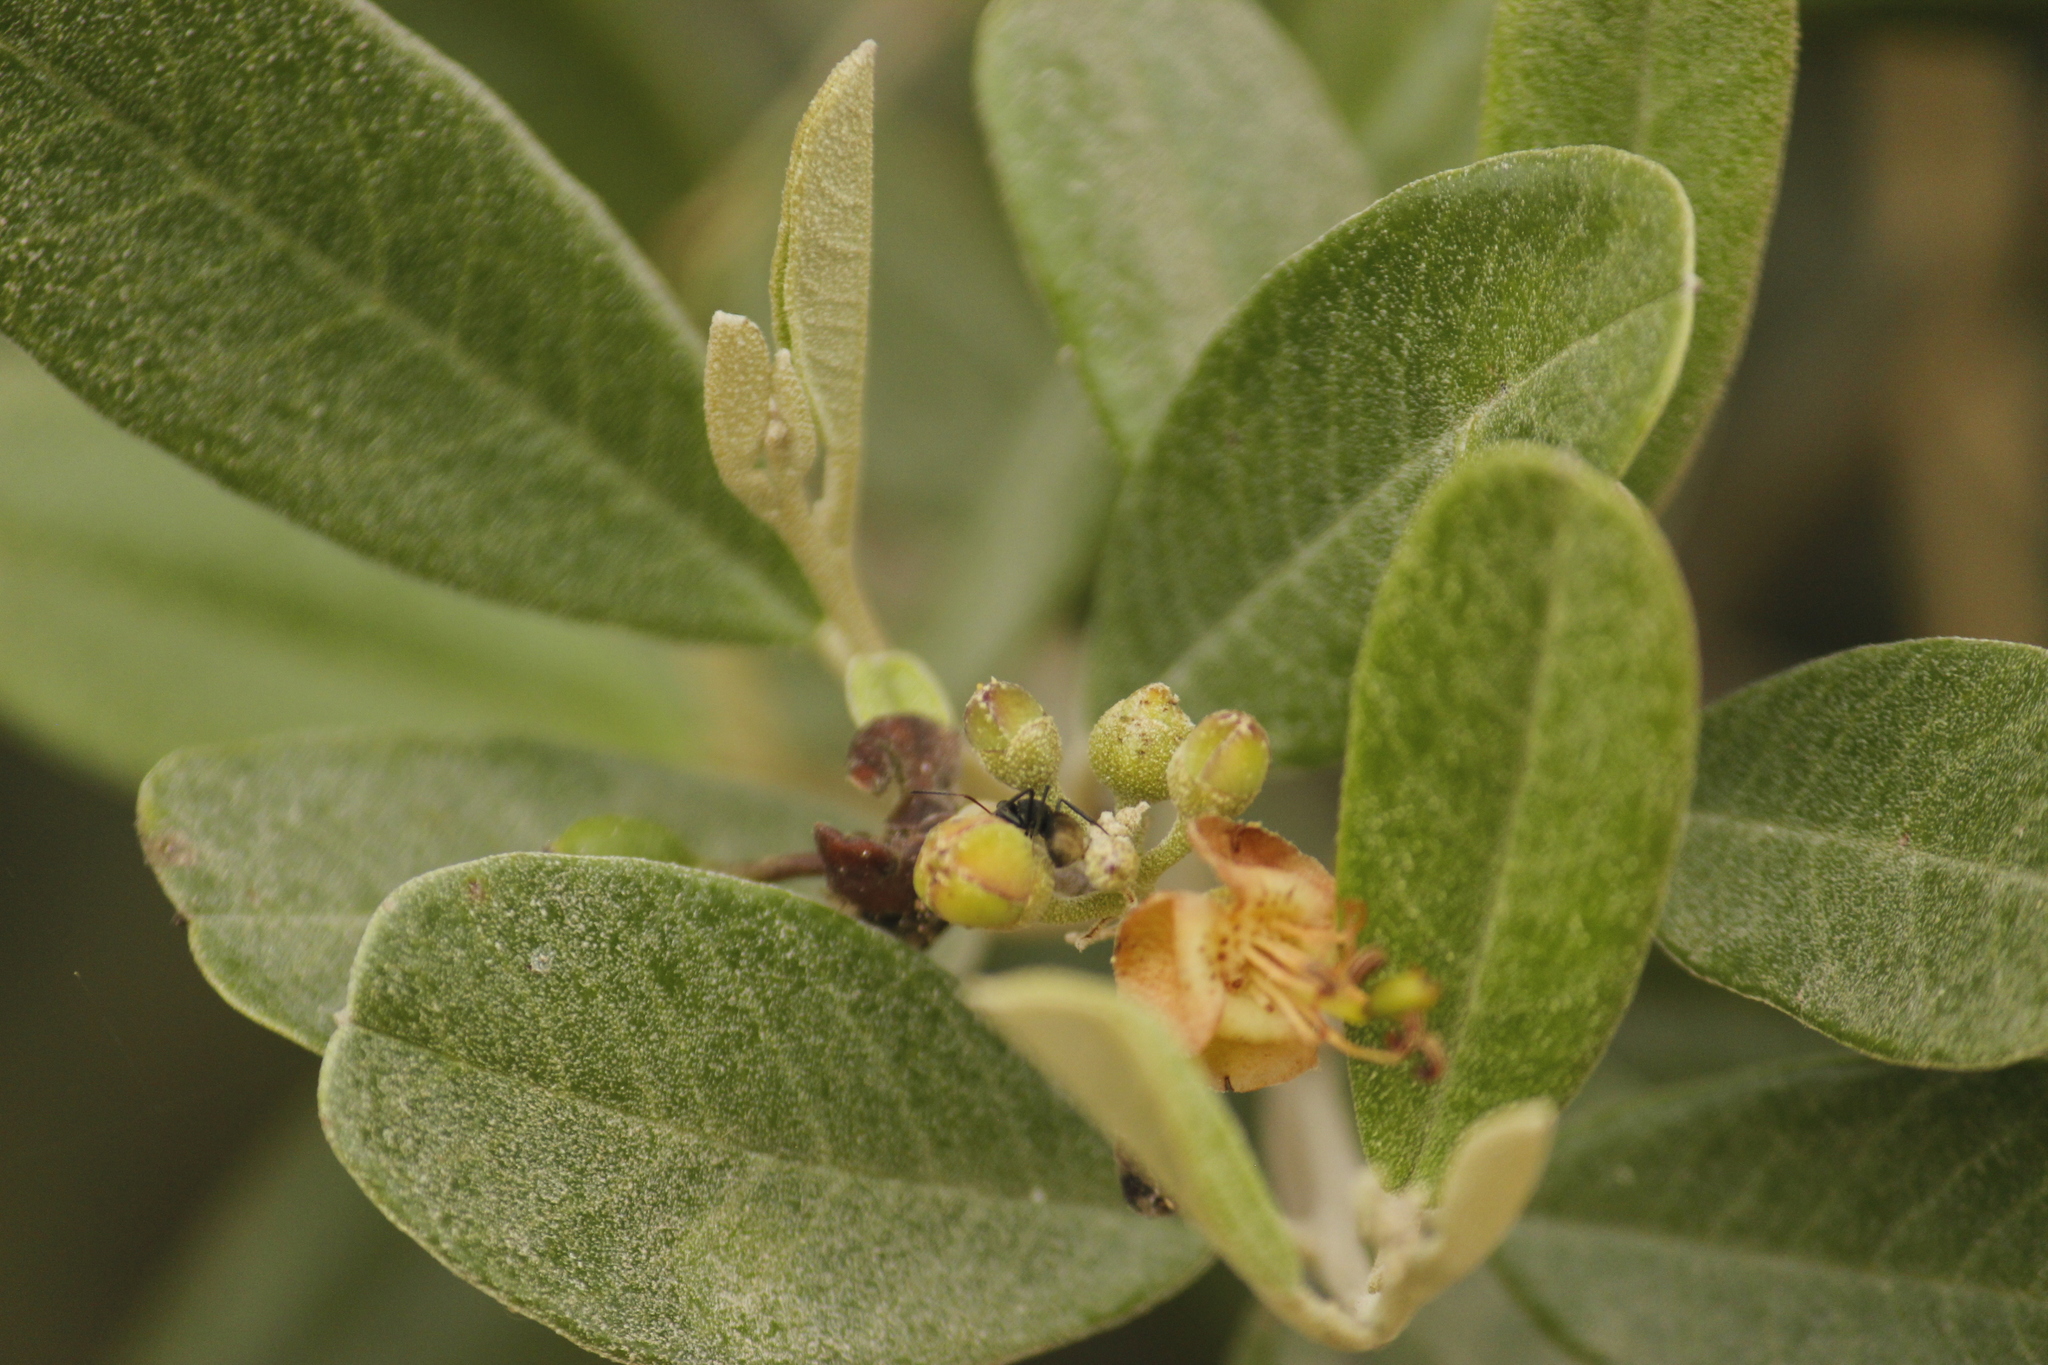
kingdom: Plantae
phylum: Tracheophyta
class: Magnoliopsida
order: Brassicales
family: Capparaceae
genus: Beautempsia
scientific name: Beautempsia avicenniifolia
